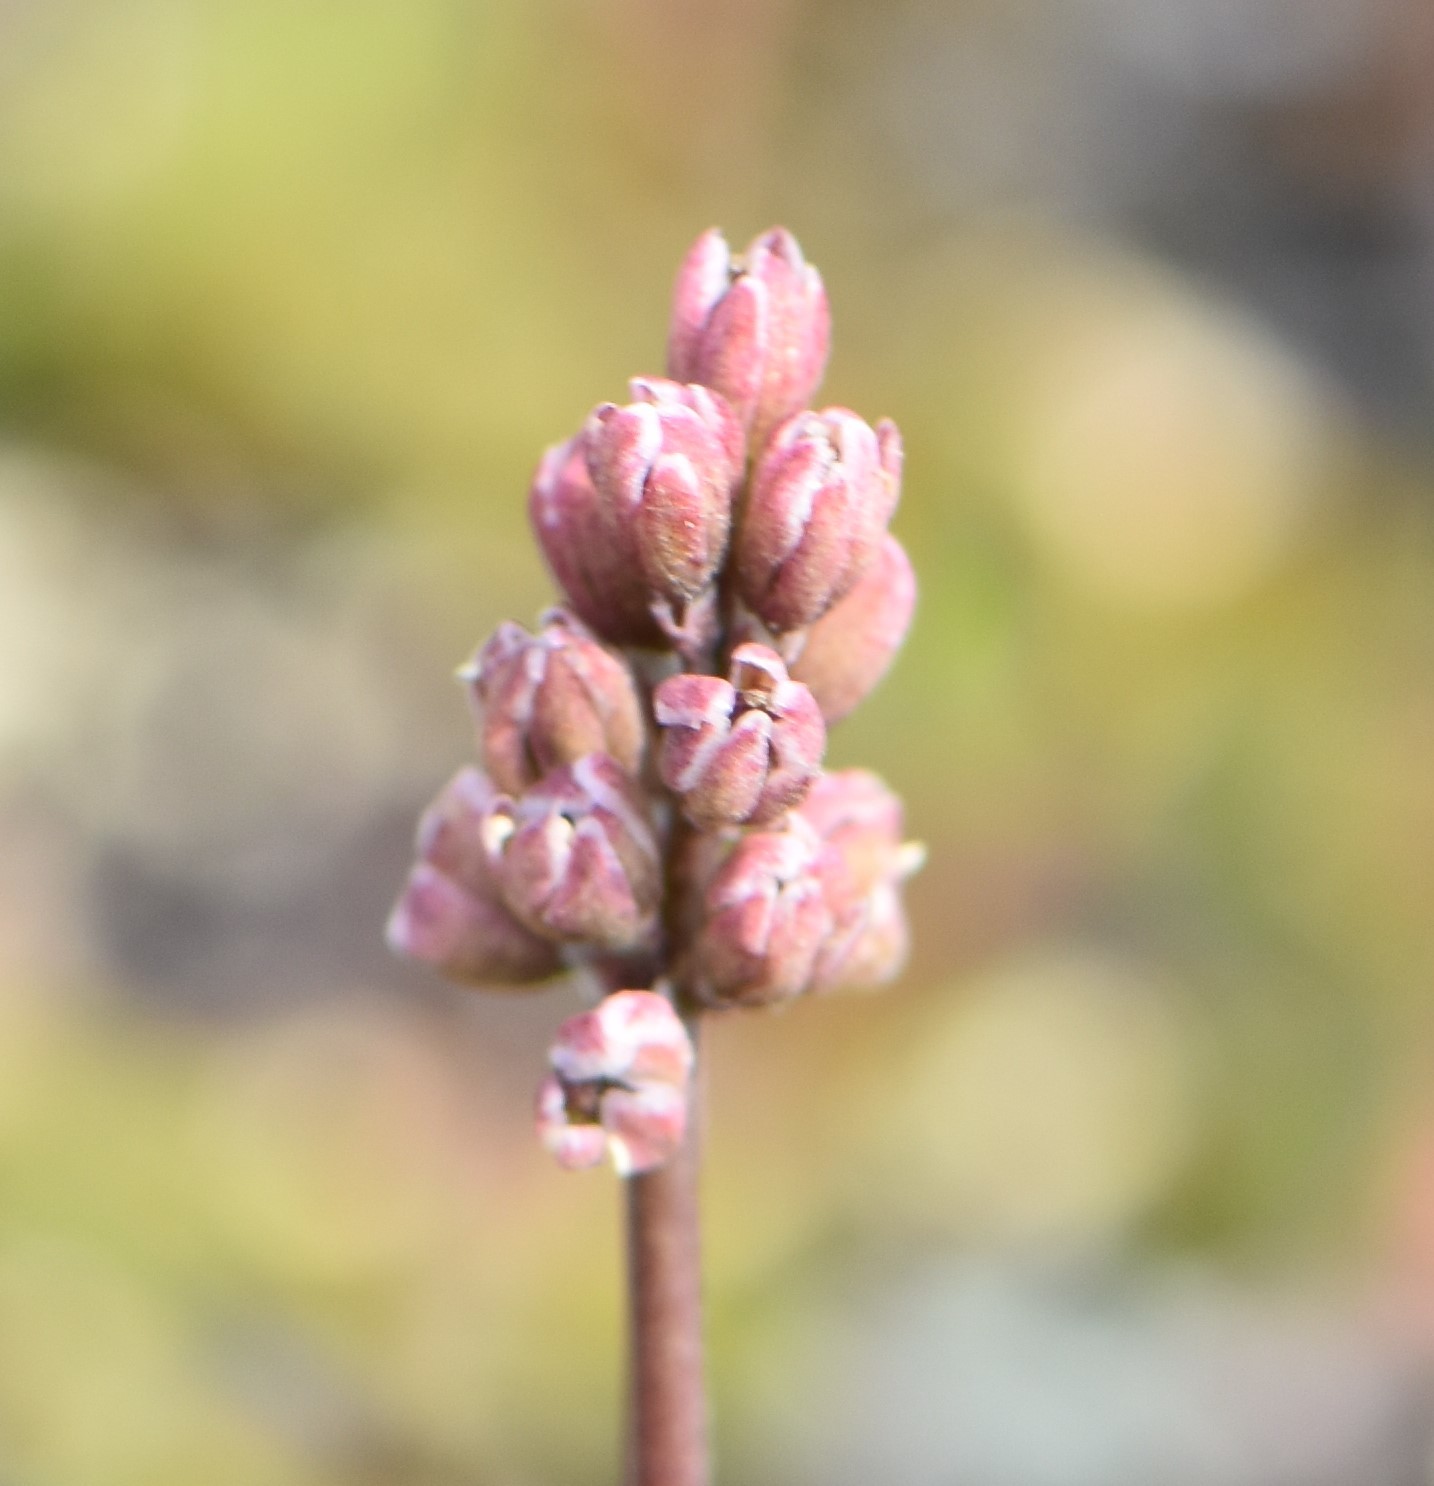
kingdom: Plantae
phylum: Tracheophyta
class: Liliopsida
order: Alismatales
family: Tofieldiaceae
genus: Tofieldia
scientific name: Tofieldia coccinea
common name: Northern false asphodel
